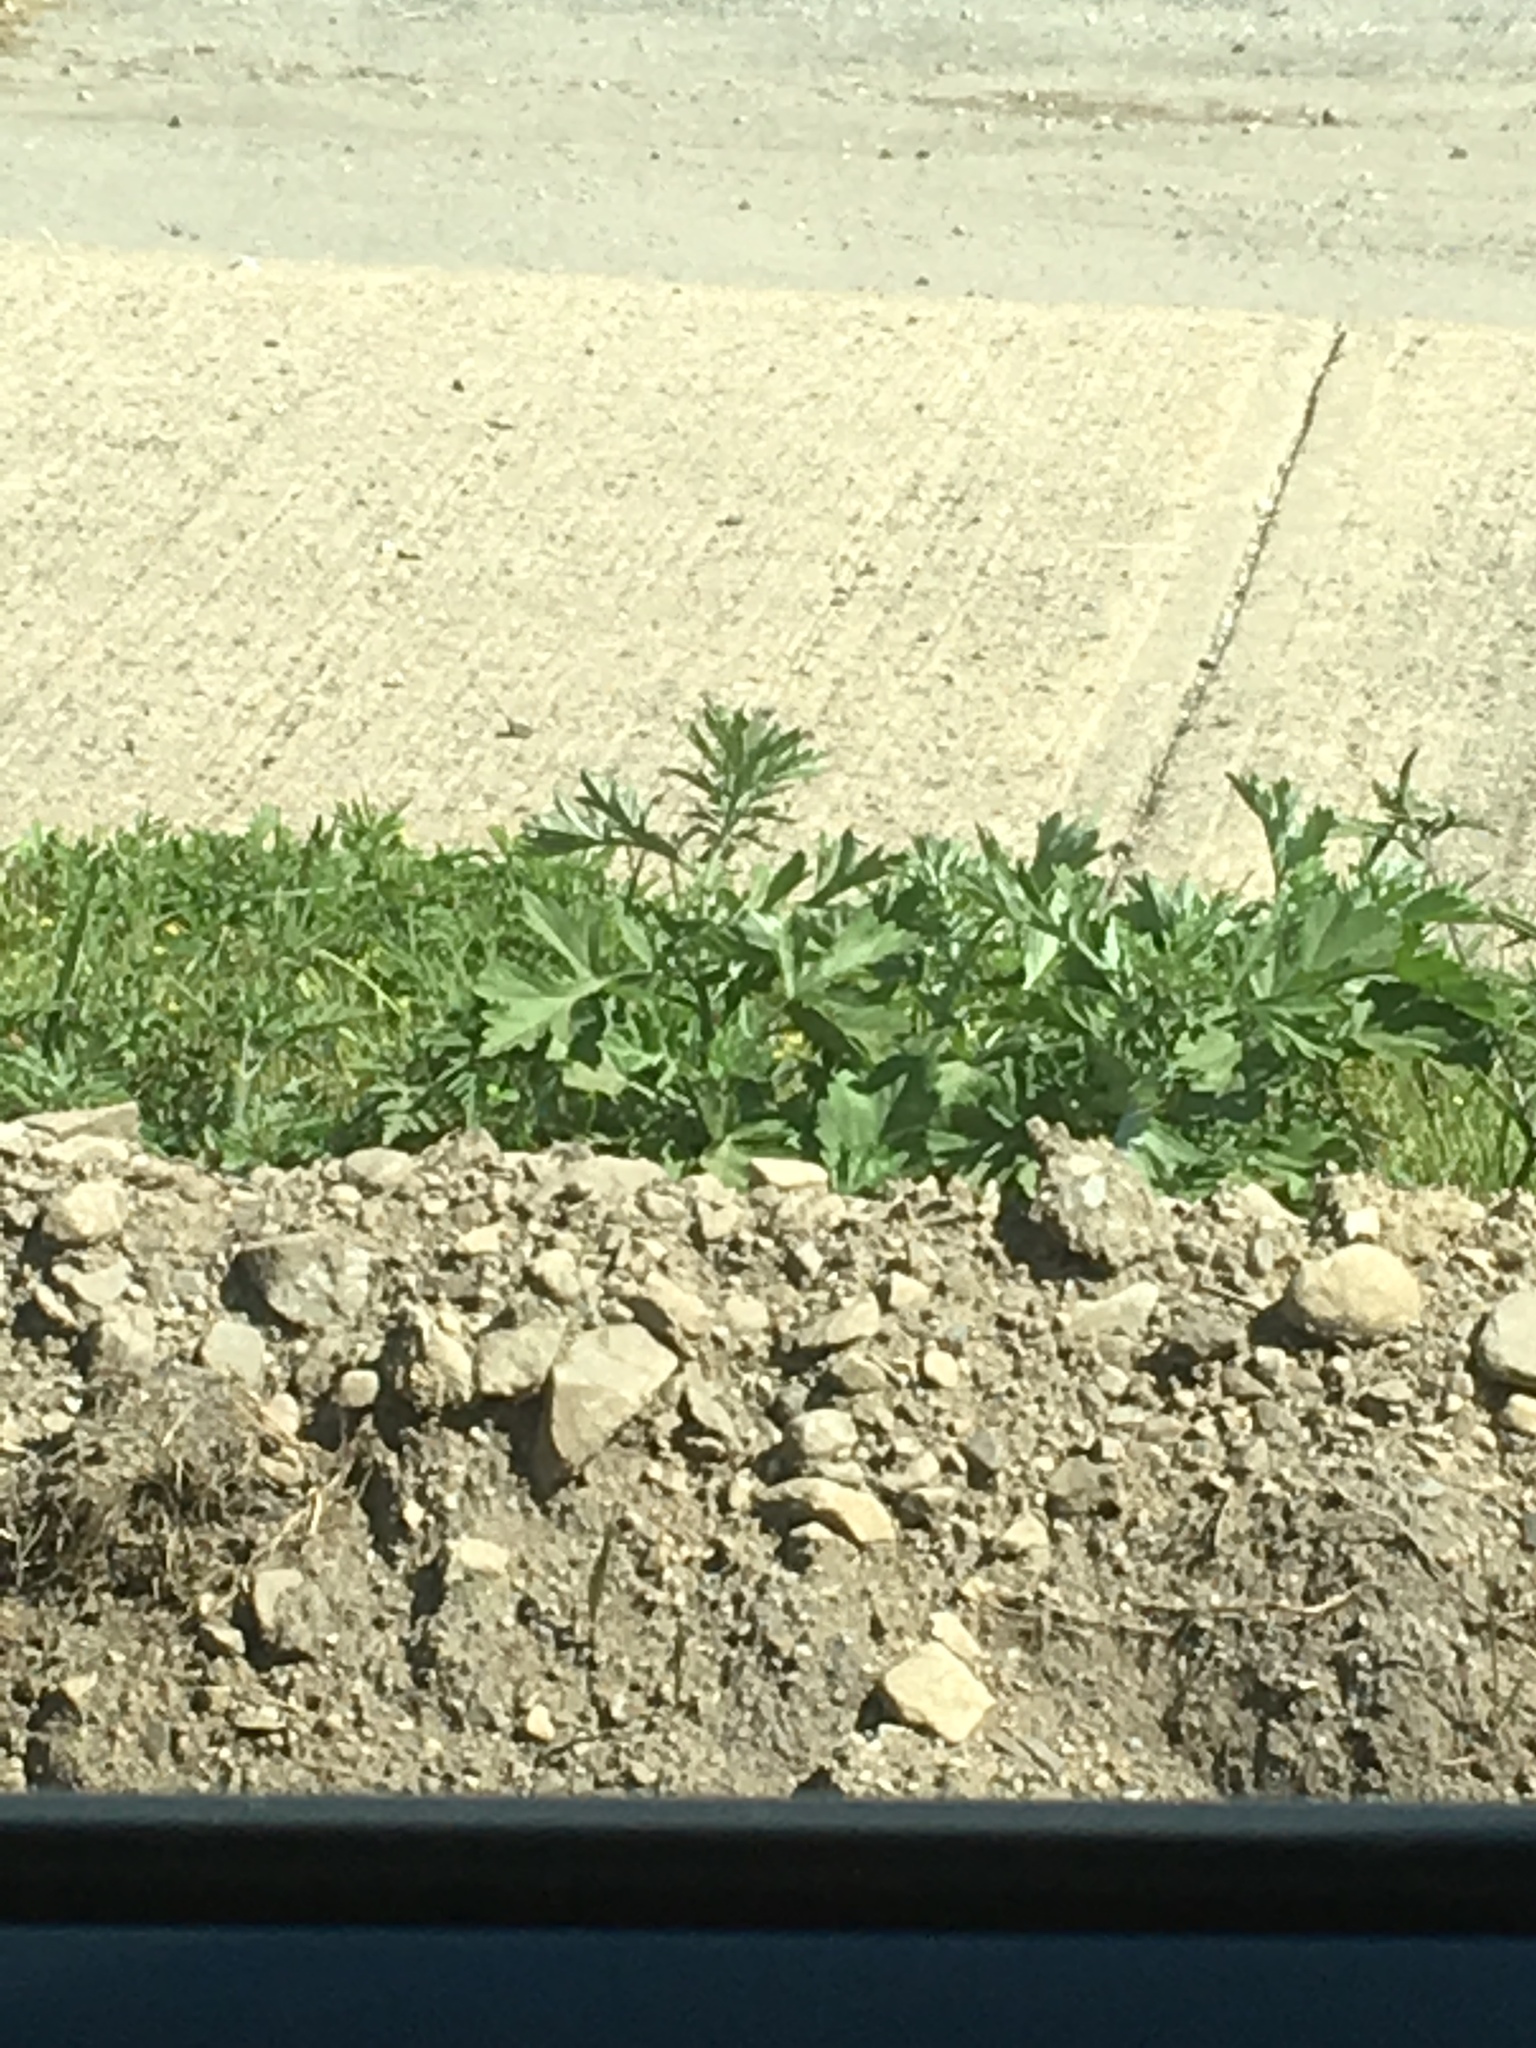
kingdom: Plantae
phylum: Tracheophyta
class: Magnoliopsida
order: Asterales
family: Asteraceae
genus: Artemisia
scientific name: Artemisia vulgaris
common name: Mugwort
